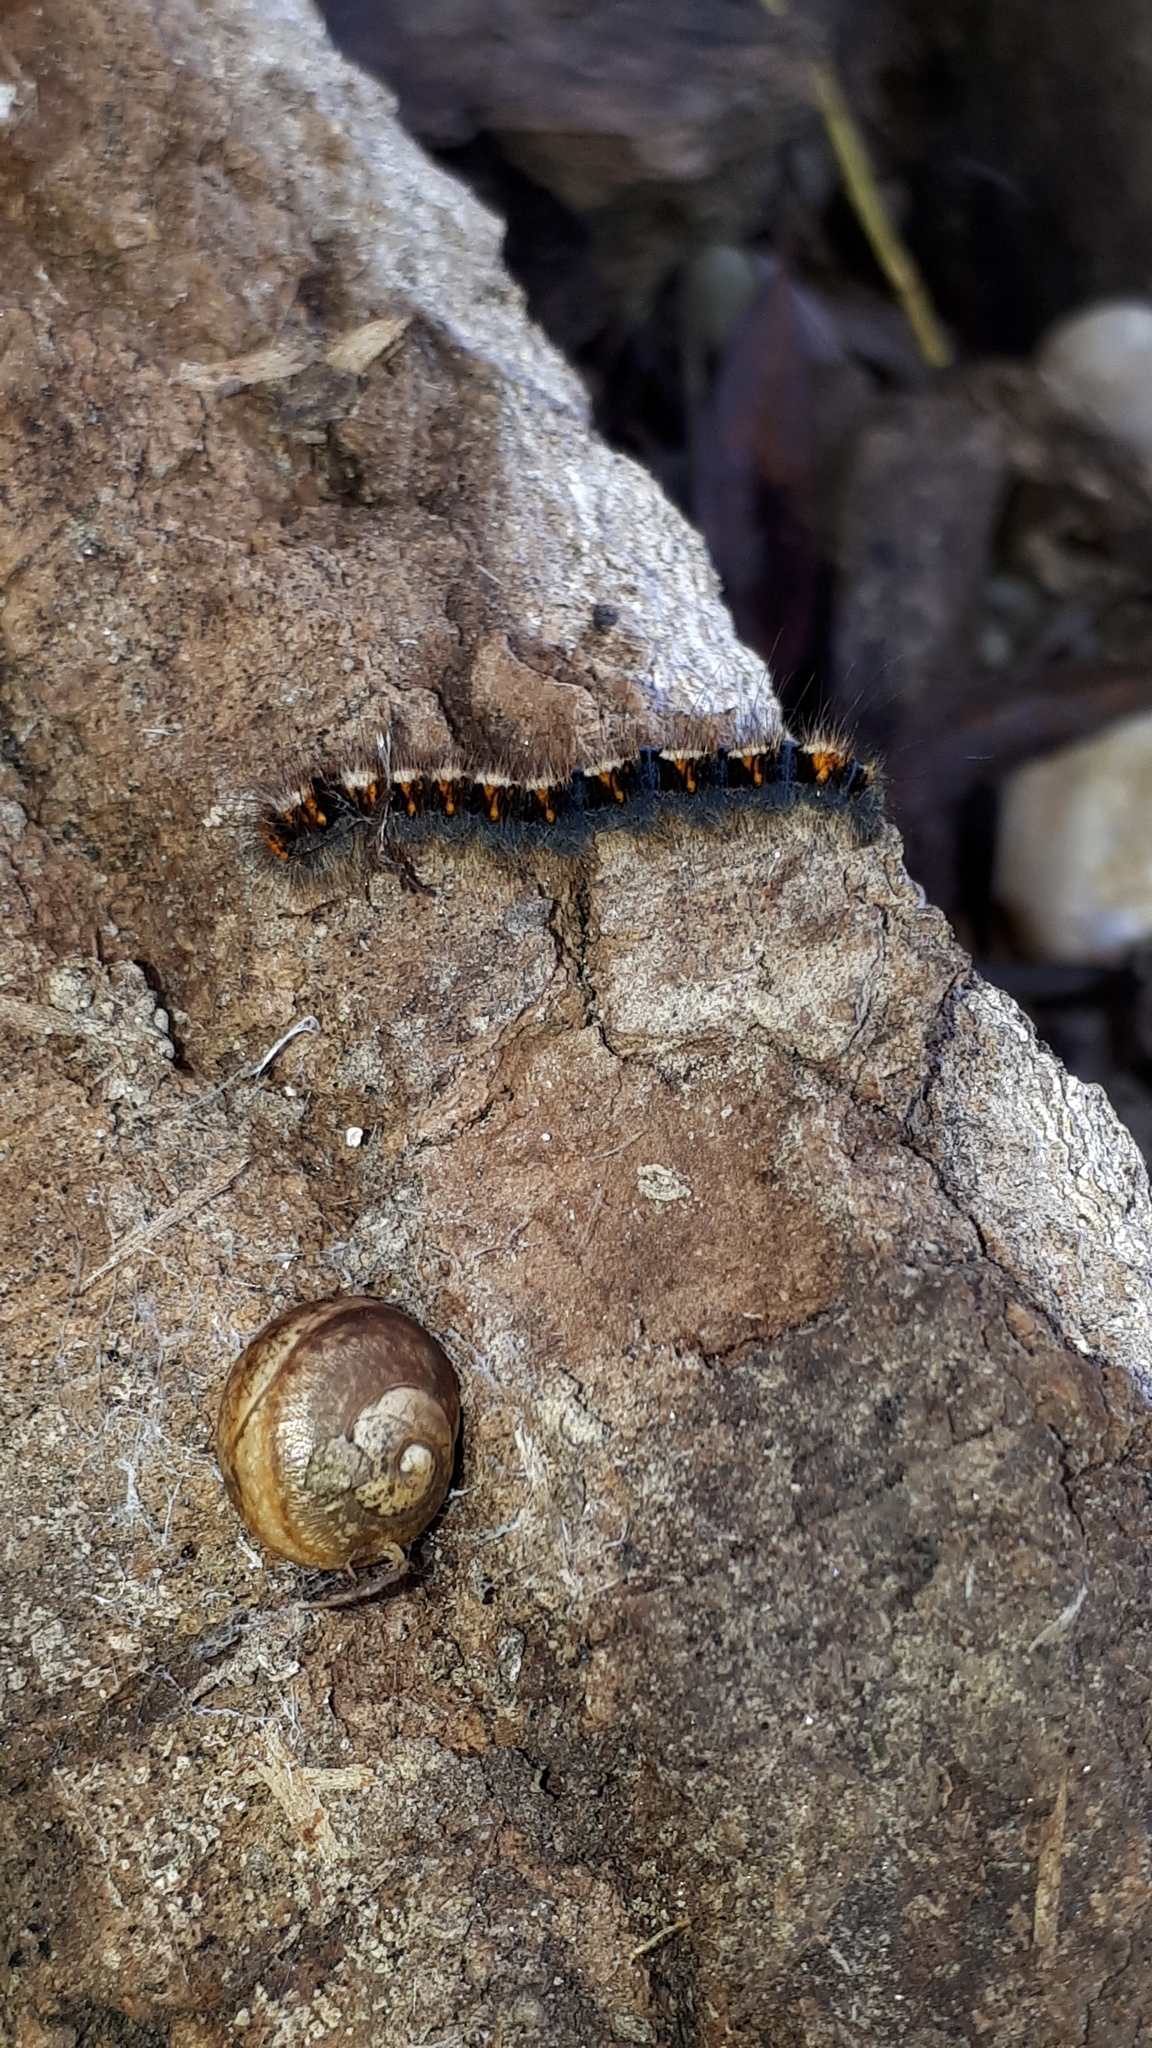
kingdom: Animalia
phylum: Mollusca
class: Gastropoda
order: Stylommatophora
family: Helicidae
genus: Helix
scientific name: Helix pomatia
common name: Roman snail
